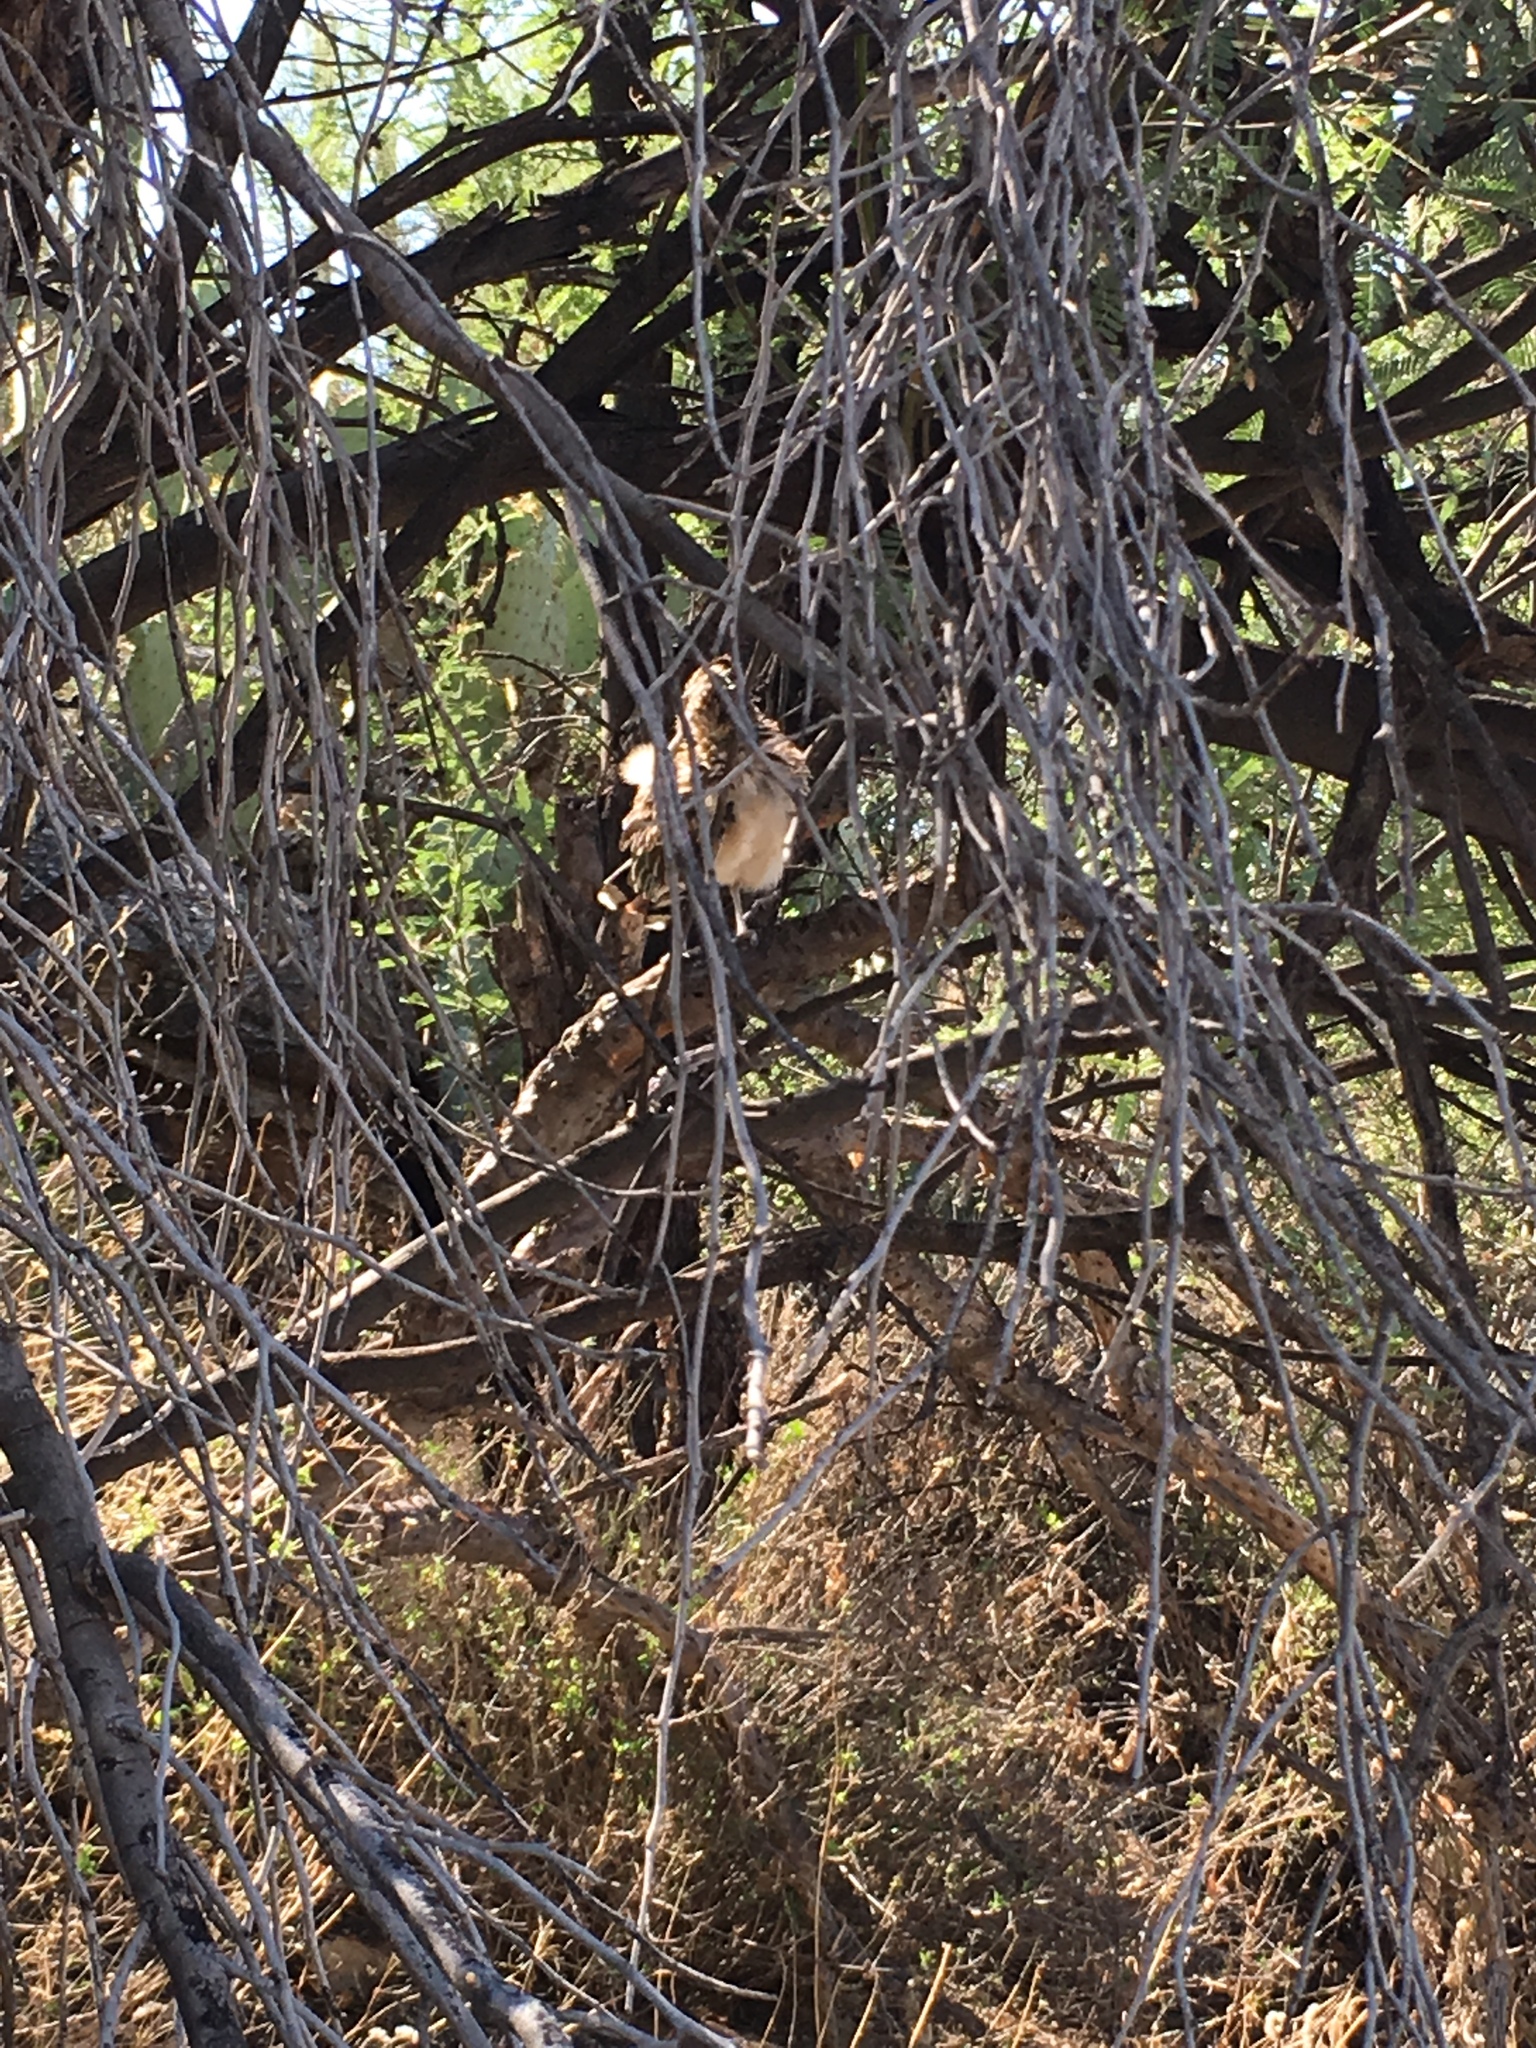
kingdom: Animalia
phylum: Chordata
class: Aves
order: Cuculiformes
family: Cuculidae
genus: Geococcyx
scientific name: Geococcyx californianus
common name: Greater roadrunner
